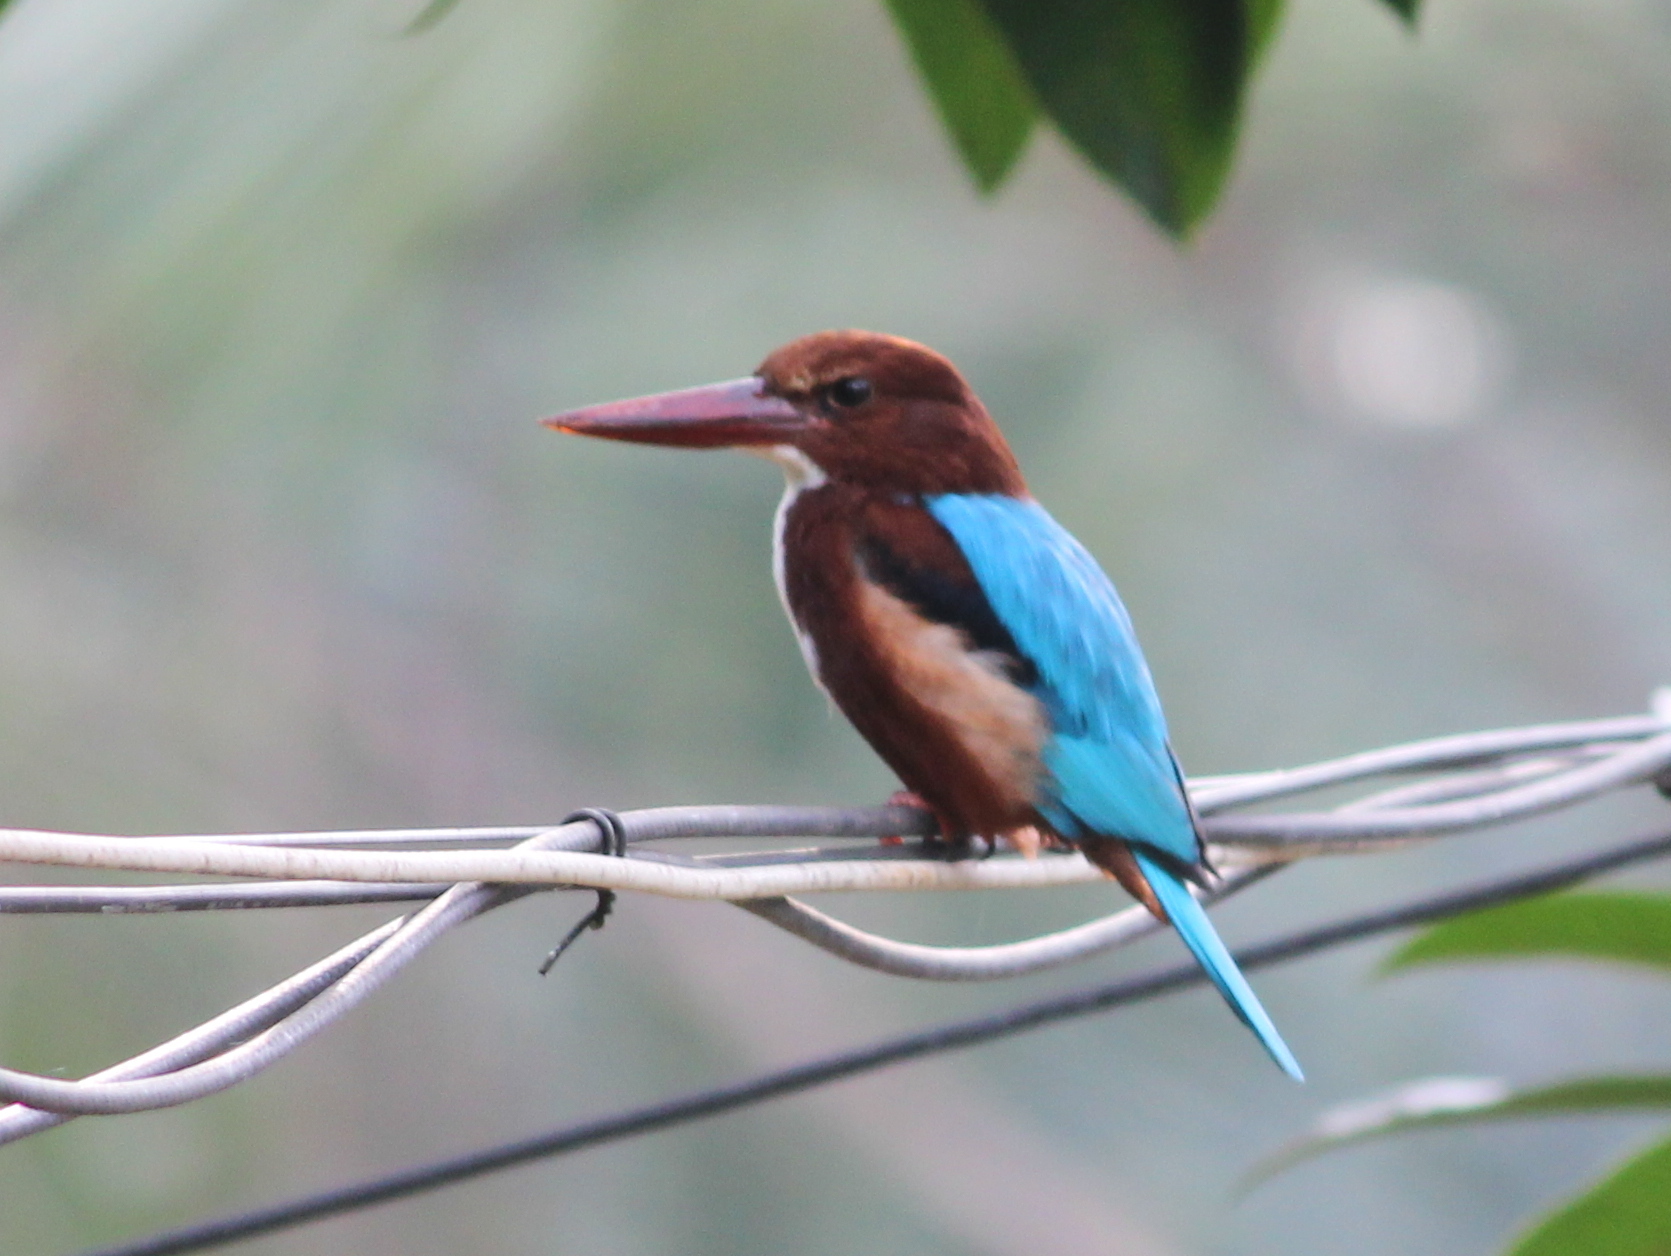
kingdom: Animalia
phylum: Chordata
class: Aves
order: Coraciiformes
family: Alcedinidae
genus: Halcyon
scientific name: Halcyon smyrnensis
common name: White-throated kingfisher
